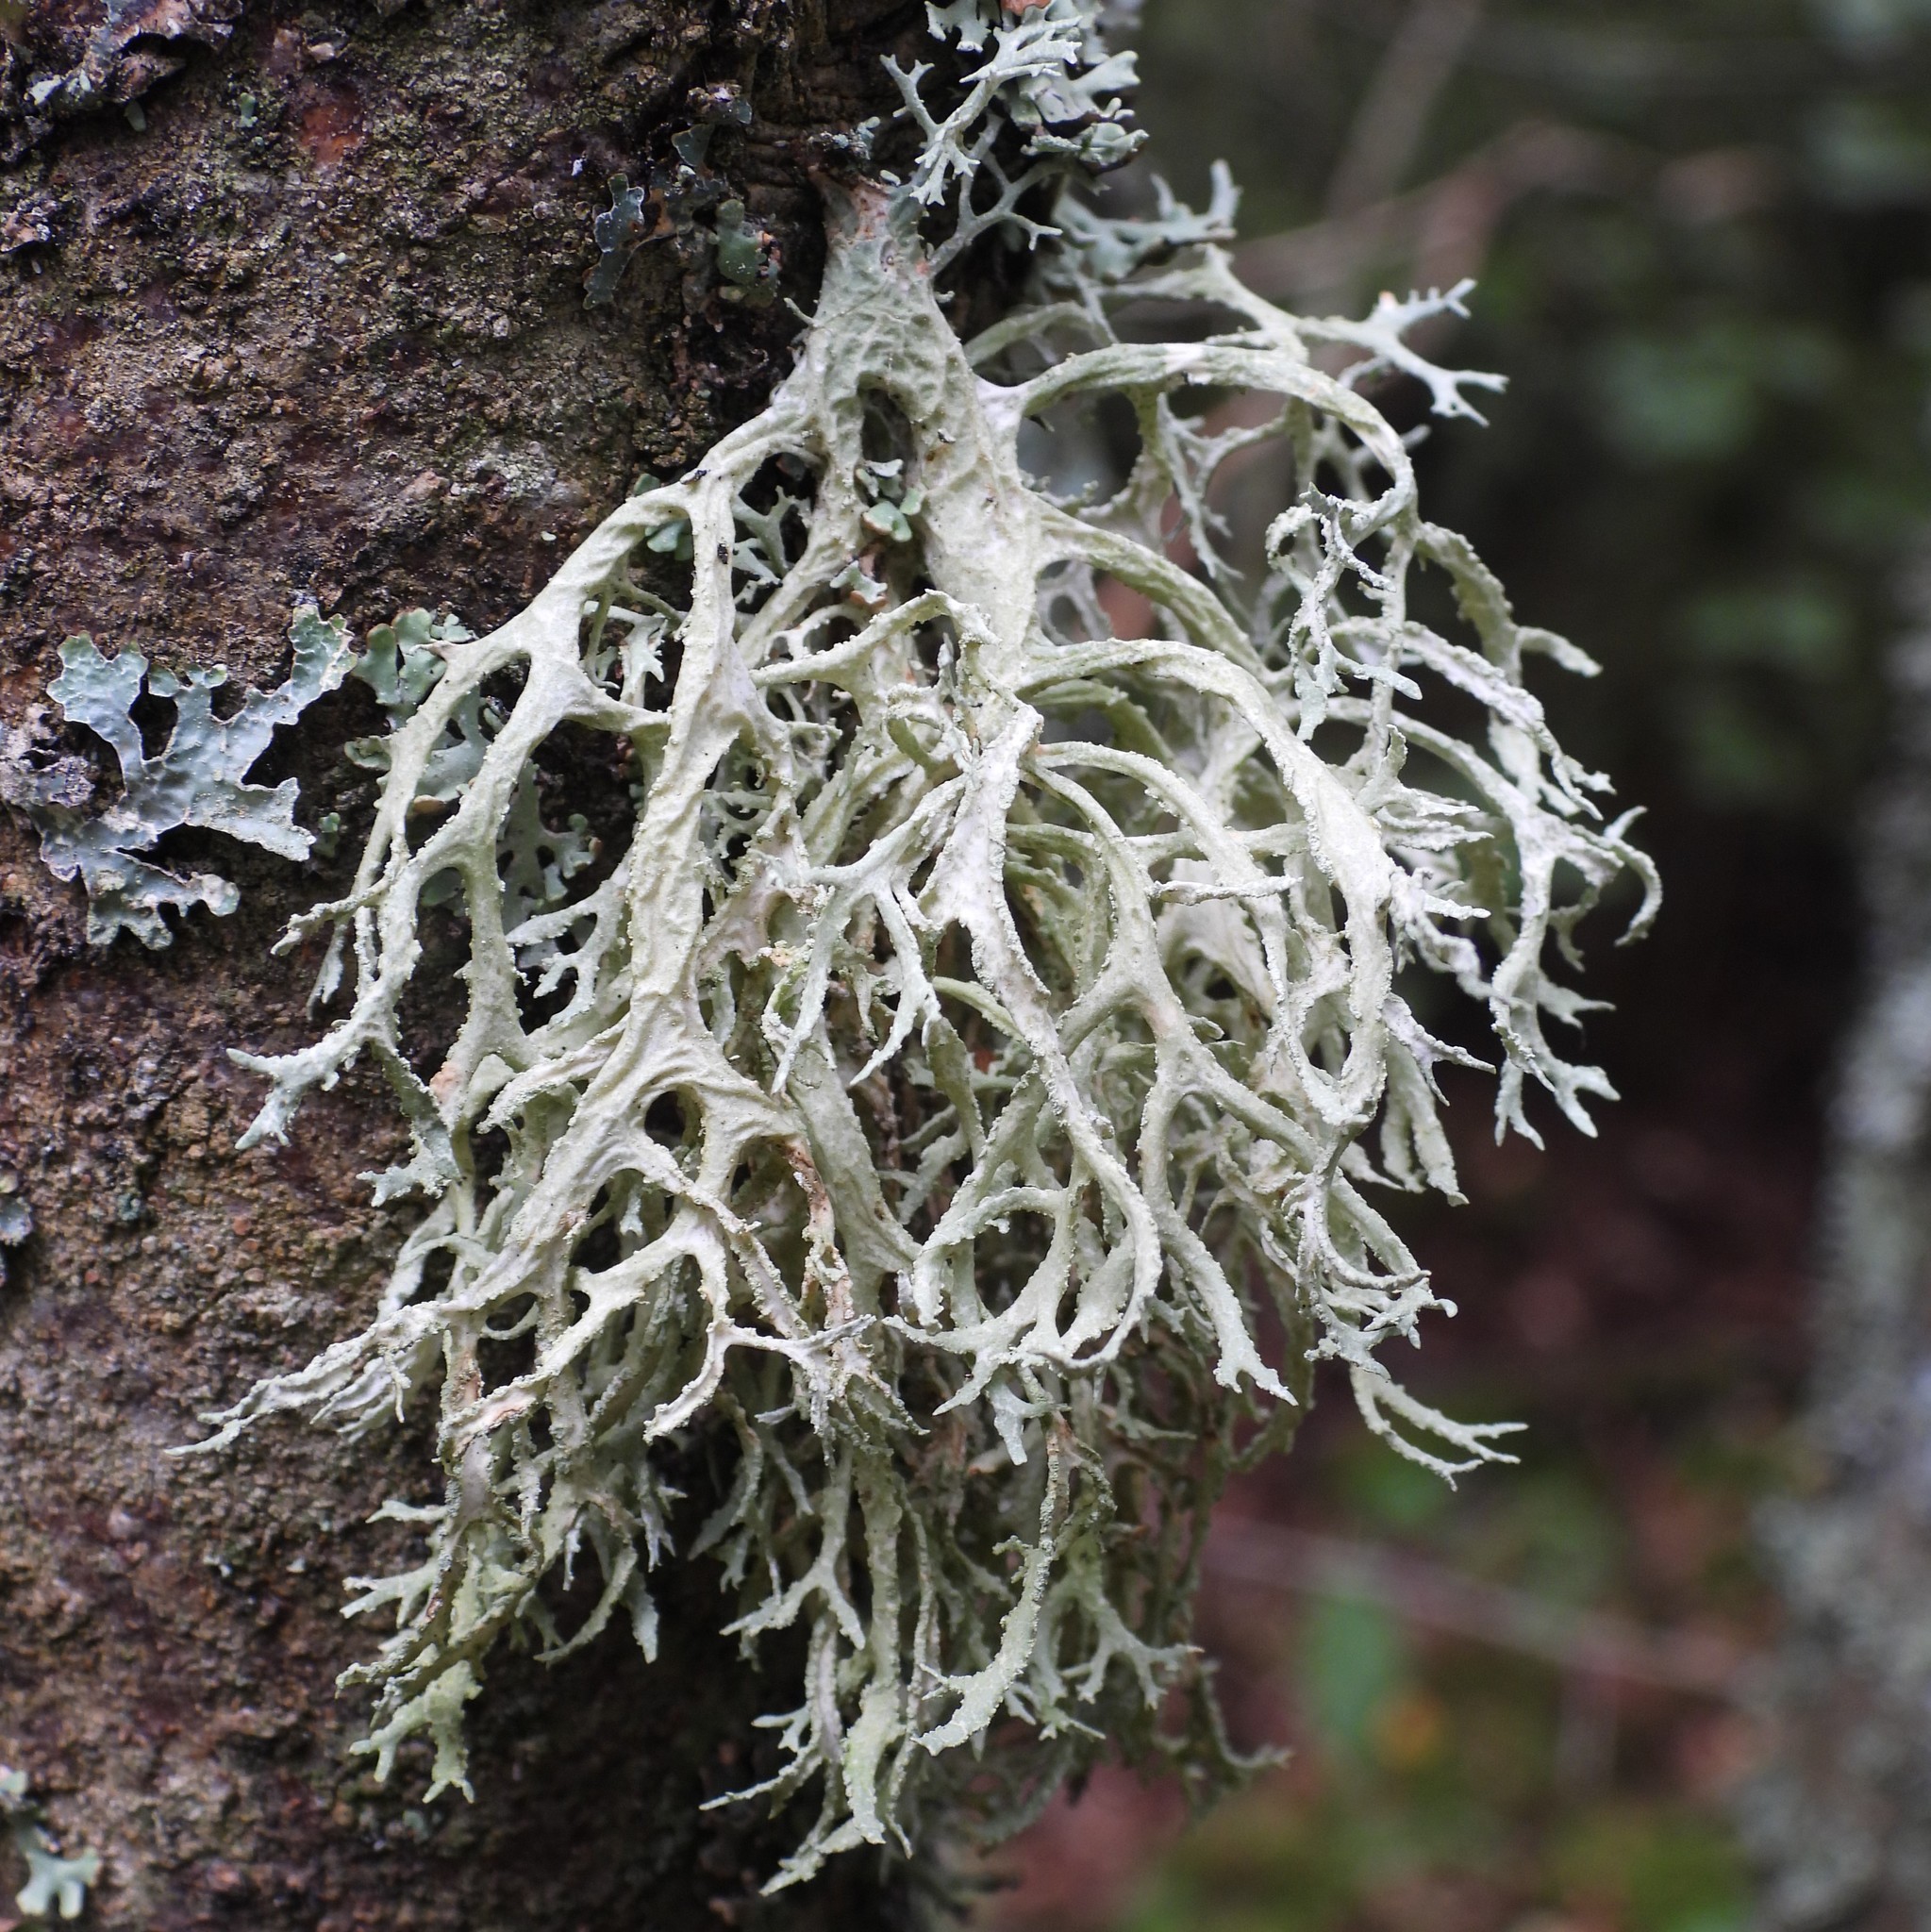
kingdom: Fungi
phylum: Ascomycota
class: Lecanoromycetes
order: Lecanorales
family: Parmeliaceae
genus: Evernia
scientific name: Evernia prunastri
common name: Oak moss
